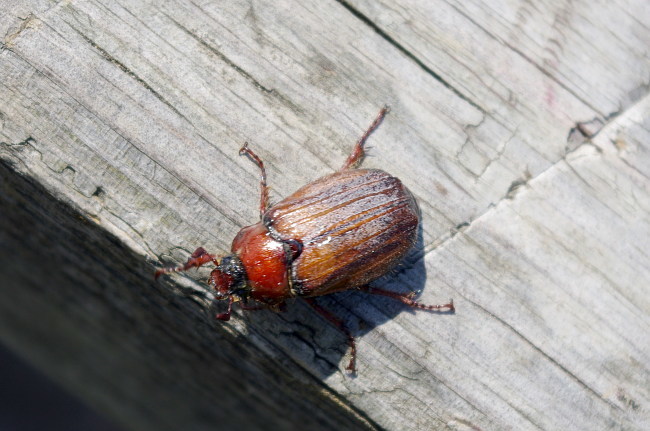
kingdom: Animalia
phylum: Arthropoda
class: Insecta
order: Coleoptera
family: Scarabaeidae
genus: Melolontha
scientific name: Melolontha hippocastani
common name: Chestnut cockchafer
